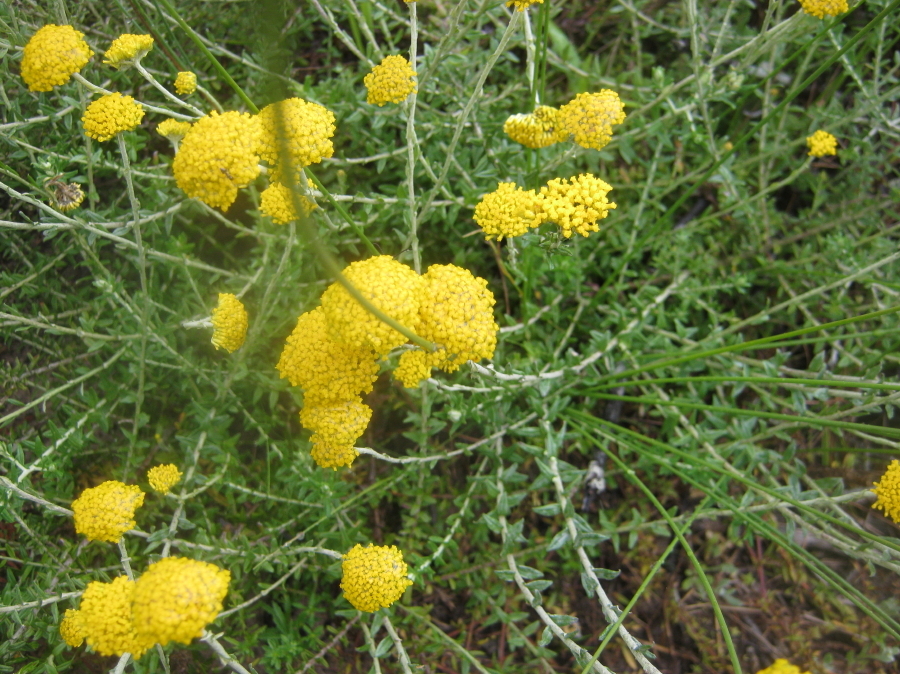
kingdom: Plantae
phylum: Tracheophyta
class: Magnoliopsida
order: Asterales
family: Asteraceae
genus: Helichrysum
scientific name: Helichrysum cymosum
